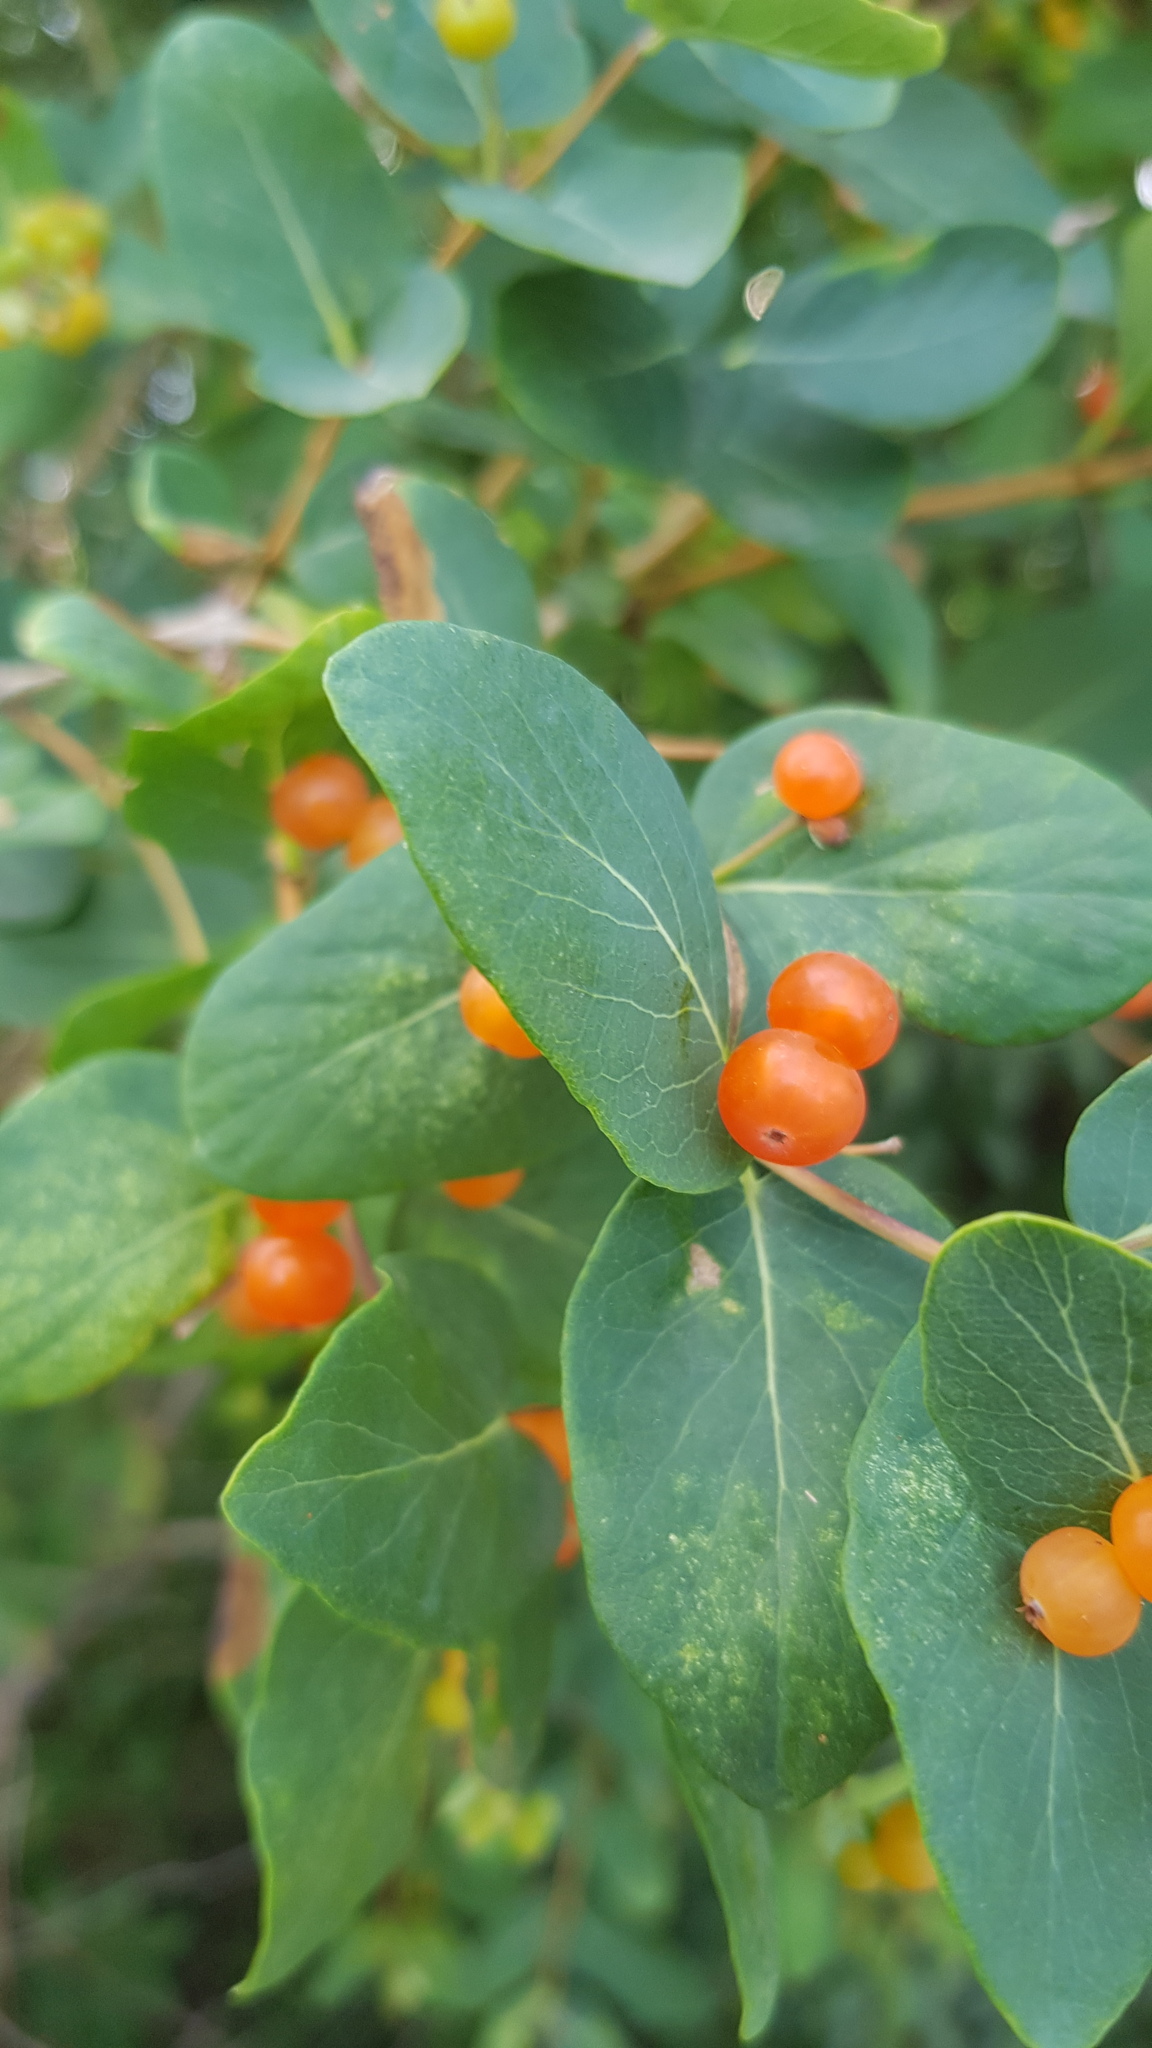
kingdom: Plantae
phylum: Tracheophyta
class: Magnoliopsida
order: Dipsacales
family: Caprifoliaceae
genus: Lonicera
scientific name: Lonicera tatarica
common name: Tatarian honeysuckle
